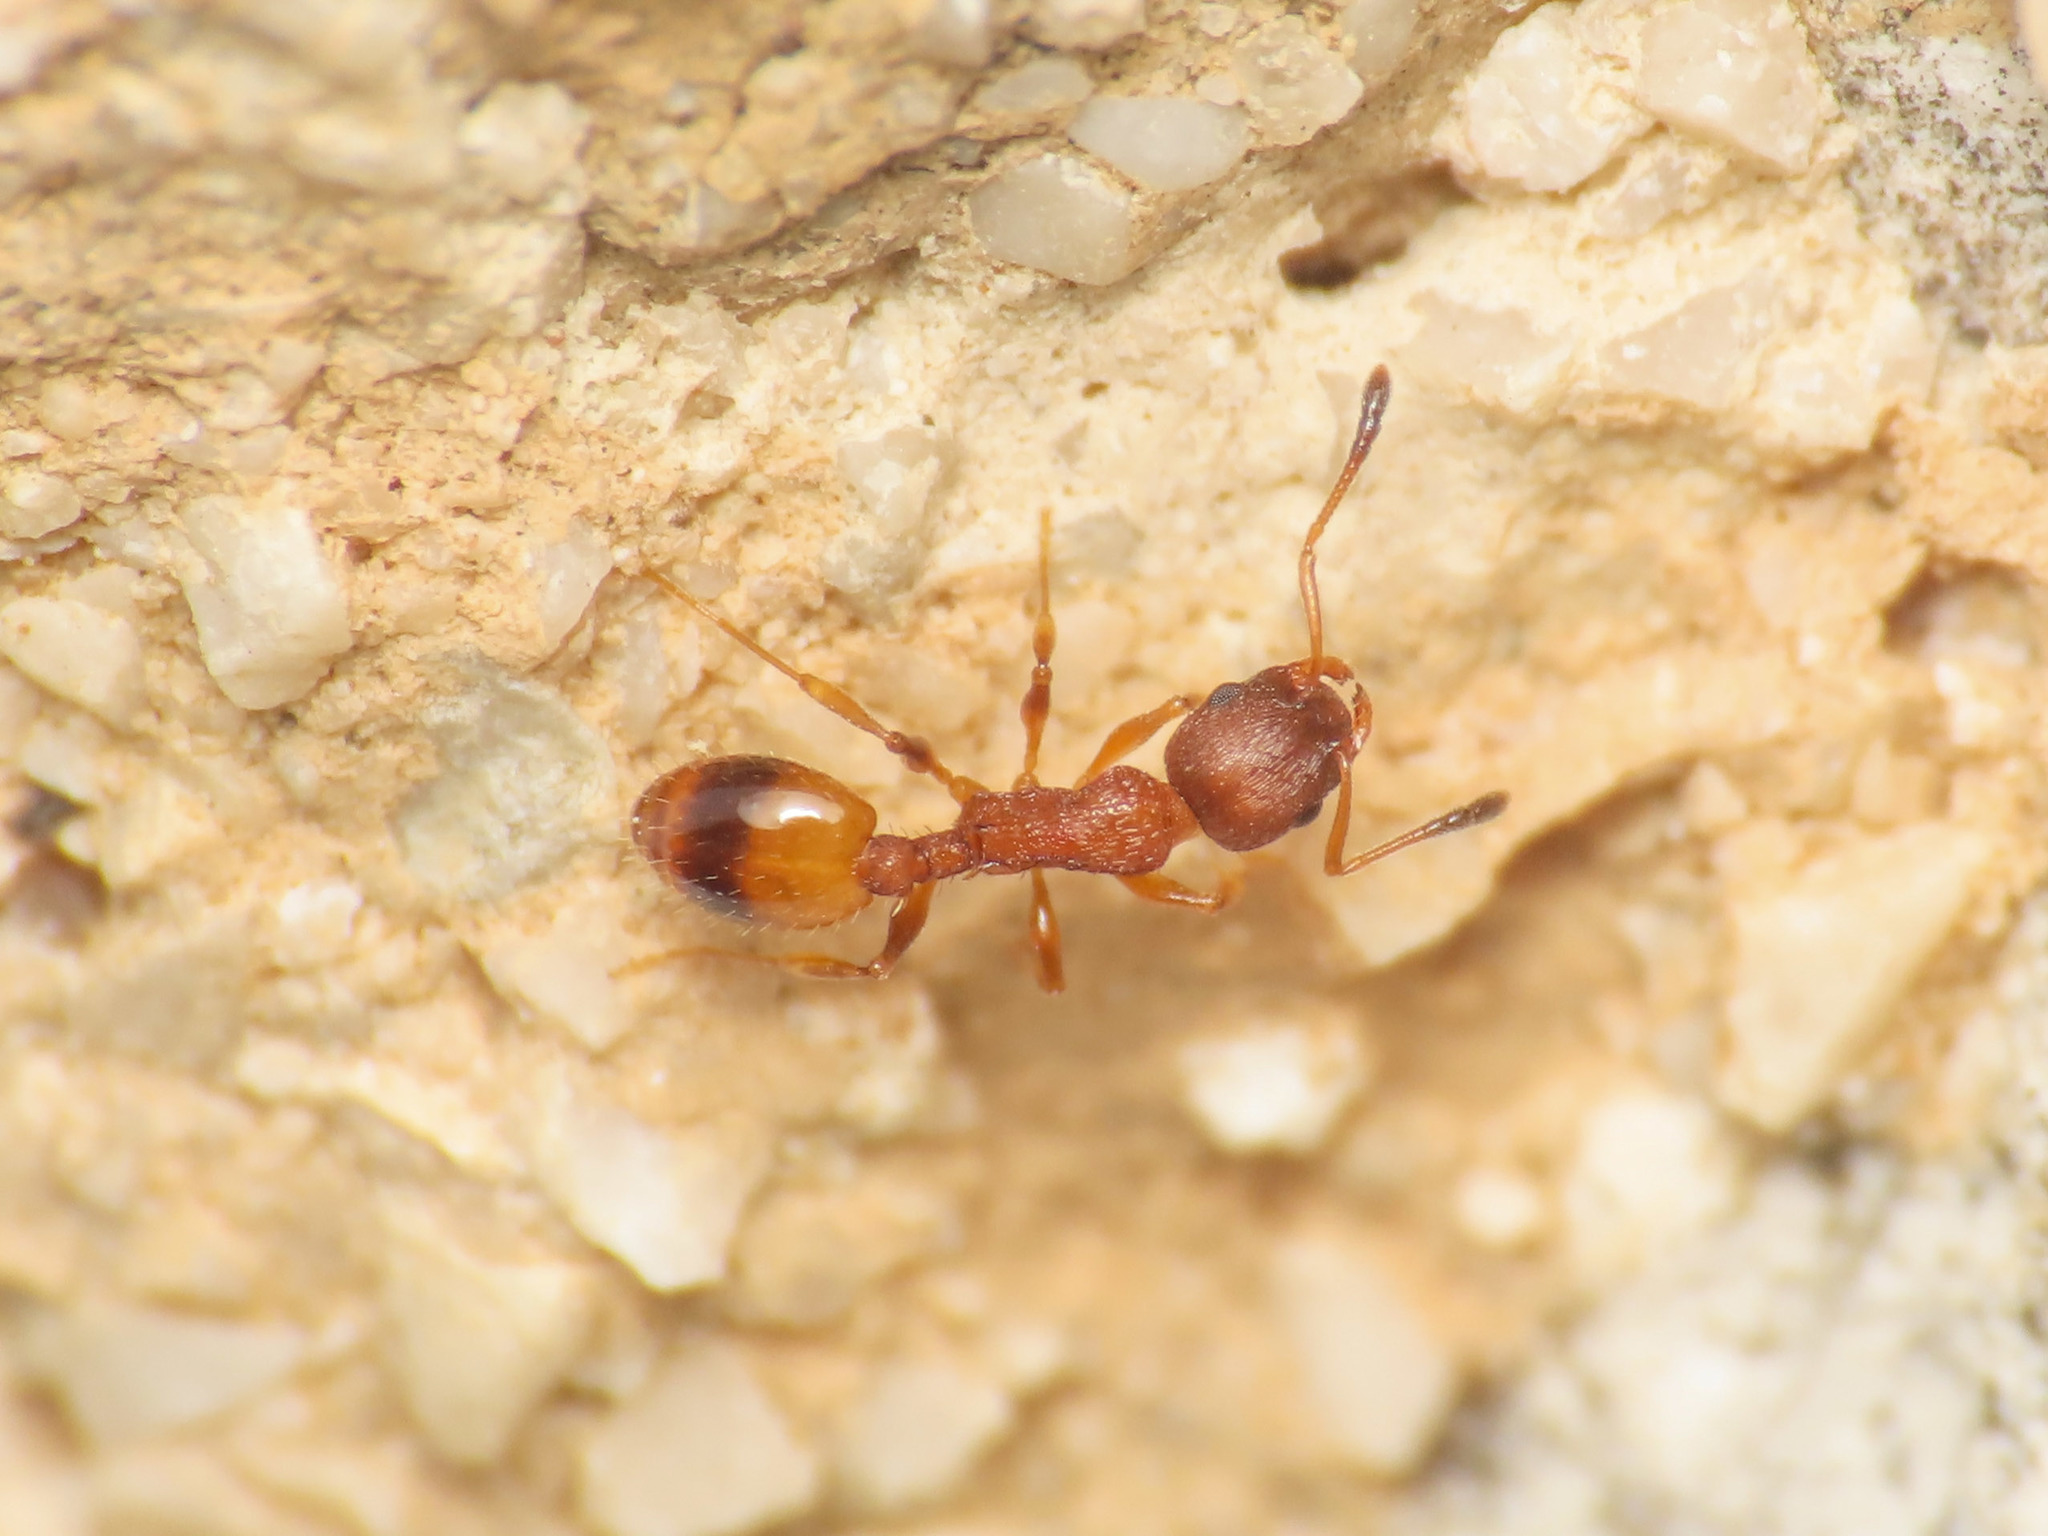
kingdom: Animalia
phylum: Arthropoda
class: Insecta
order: Hymenoptera
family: Formicidae
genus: Temnothorax
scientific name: Temnothorax albipennis
